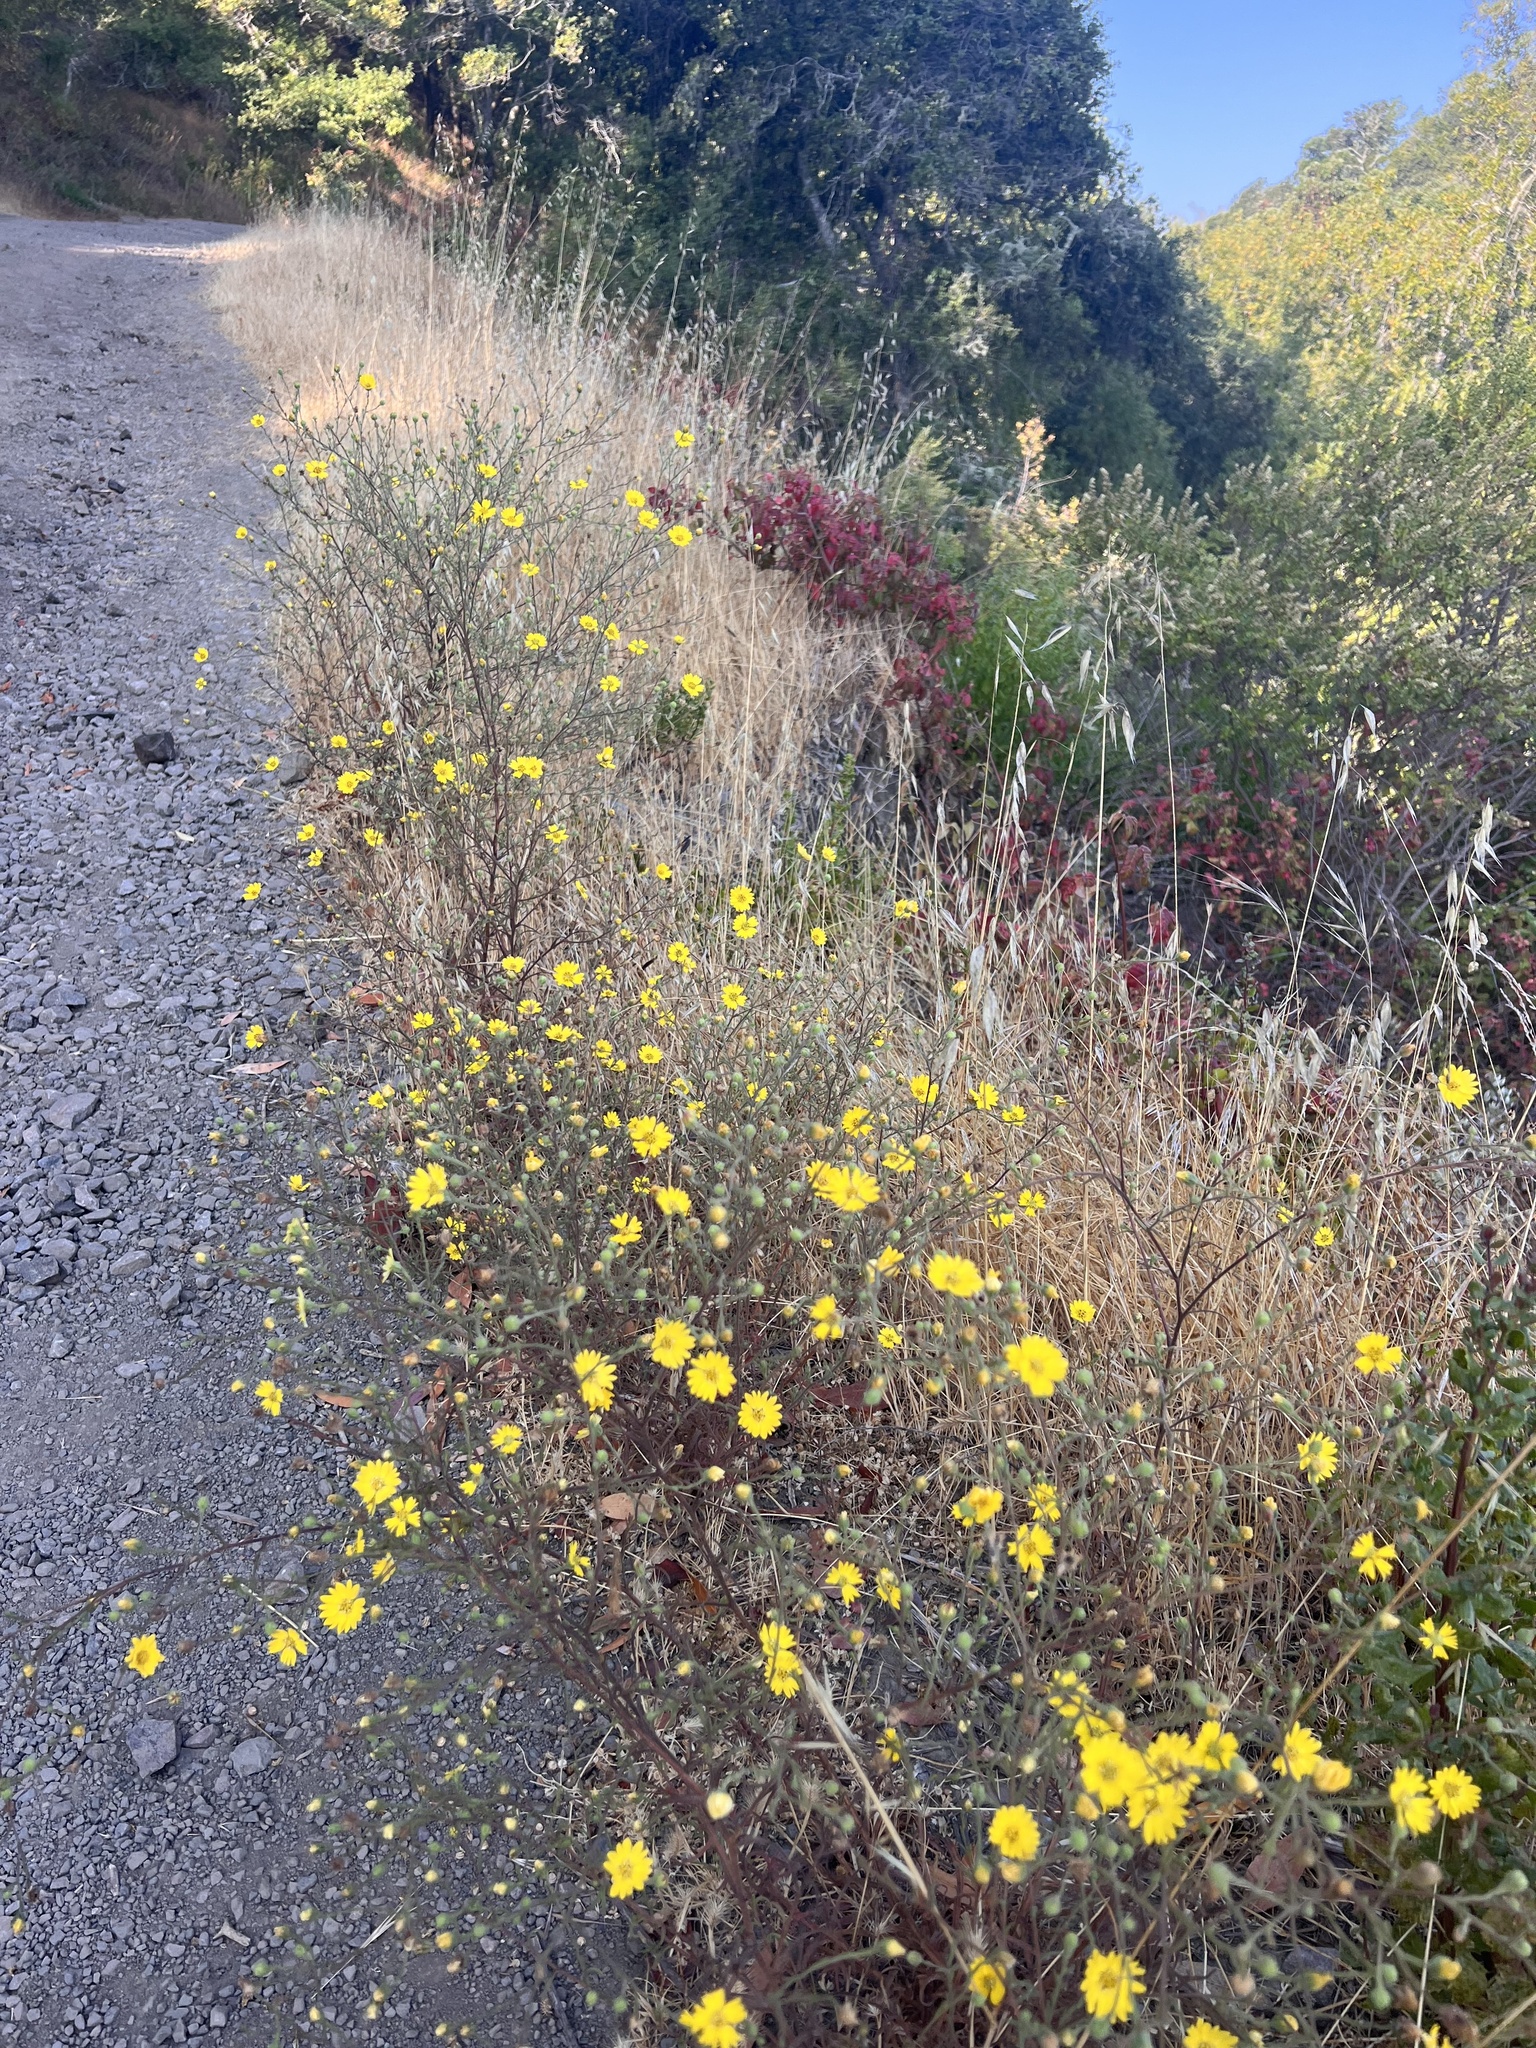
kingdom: Plantae
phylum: Tracheophyta
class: Magnoliopsida
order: Asterales
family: Asteraceae
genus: Hemizonia
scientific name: Hemizonia congesta
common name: Hayfield tarweed
